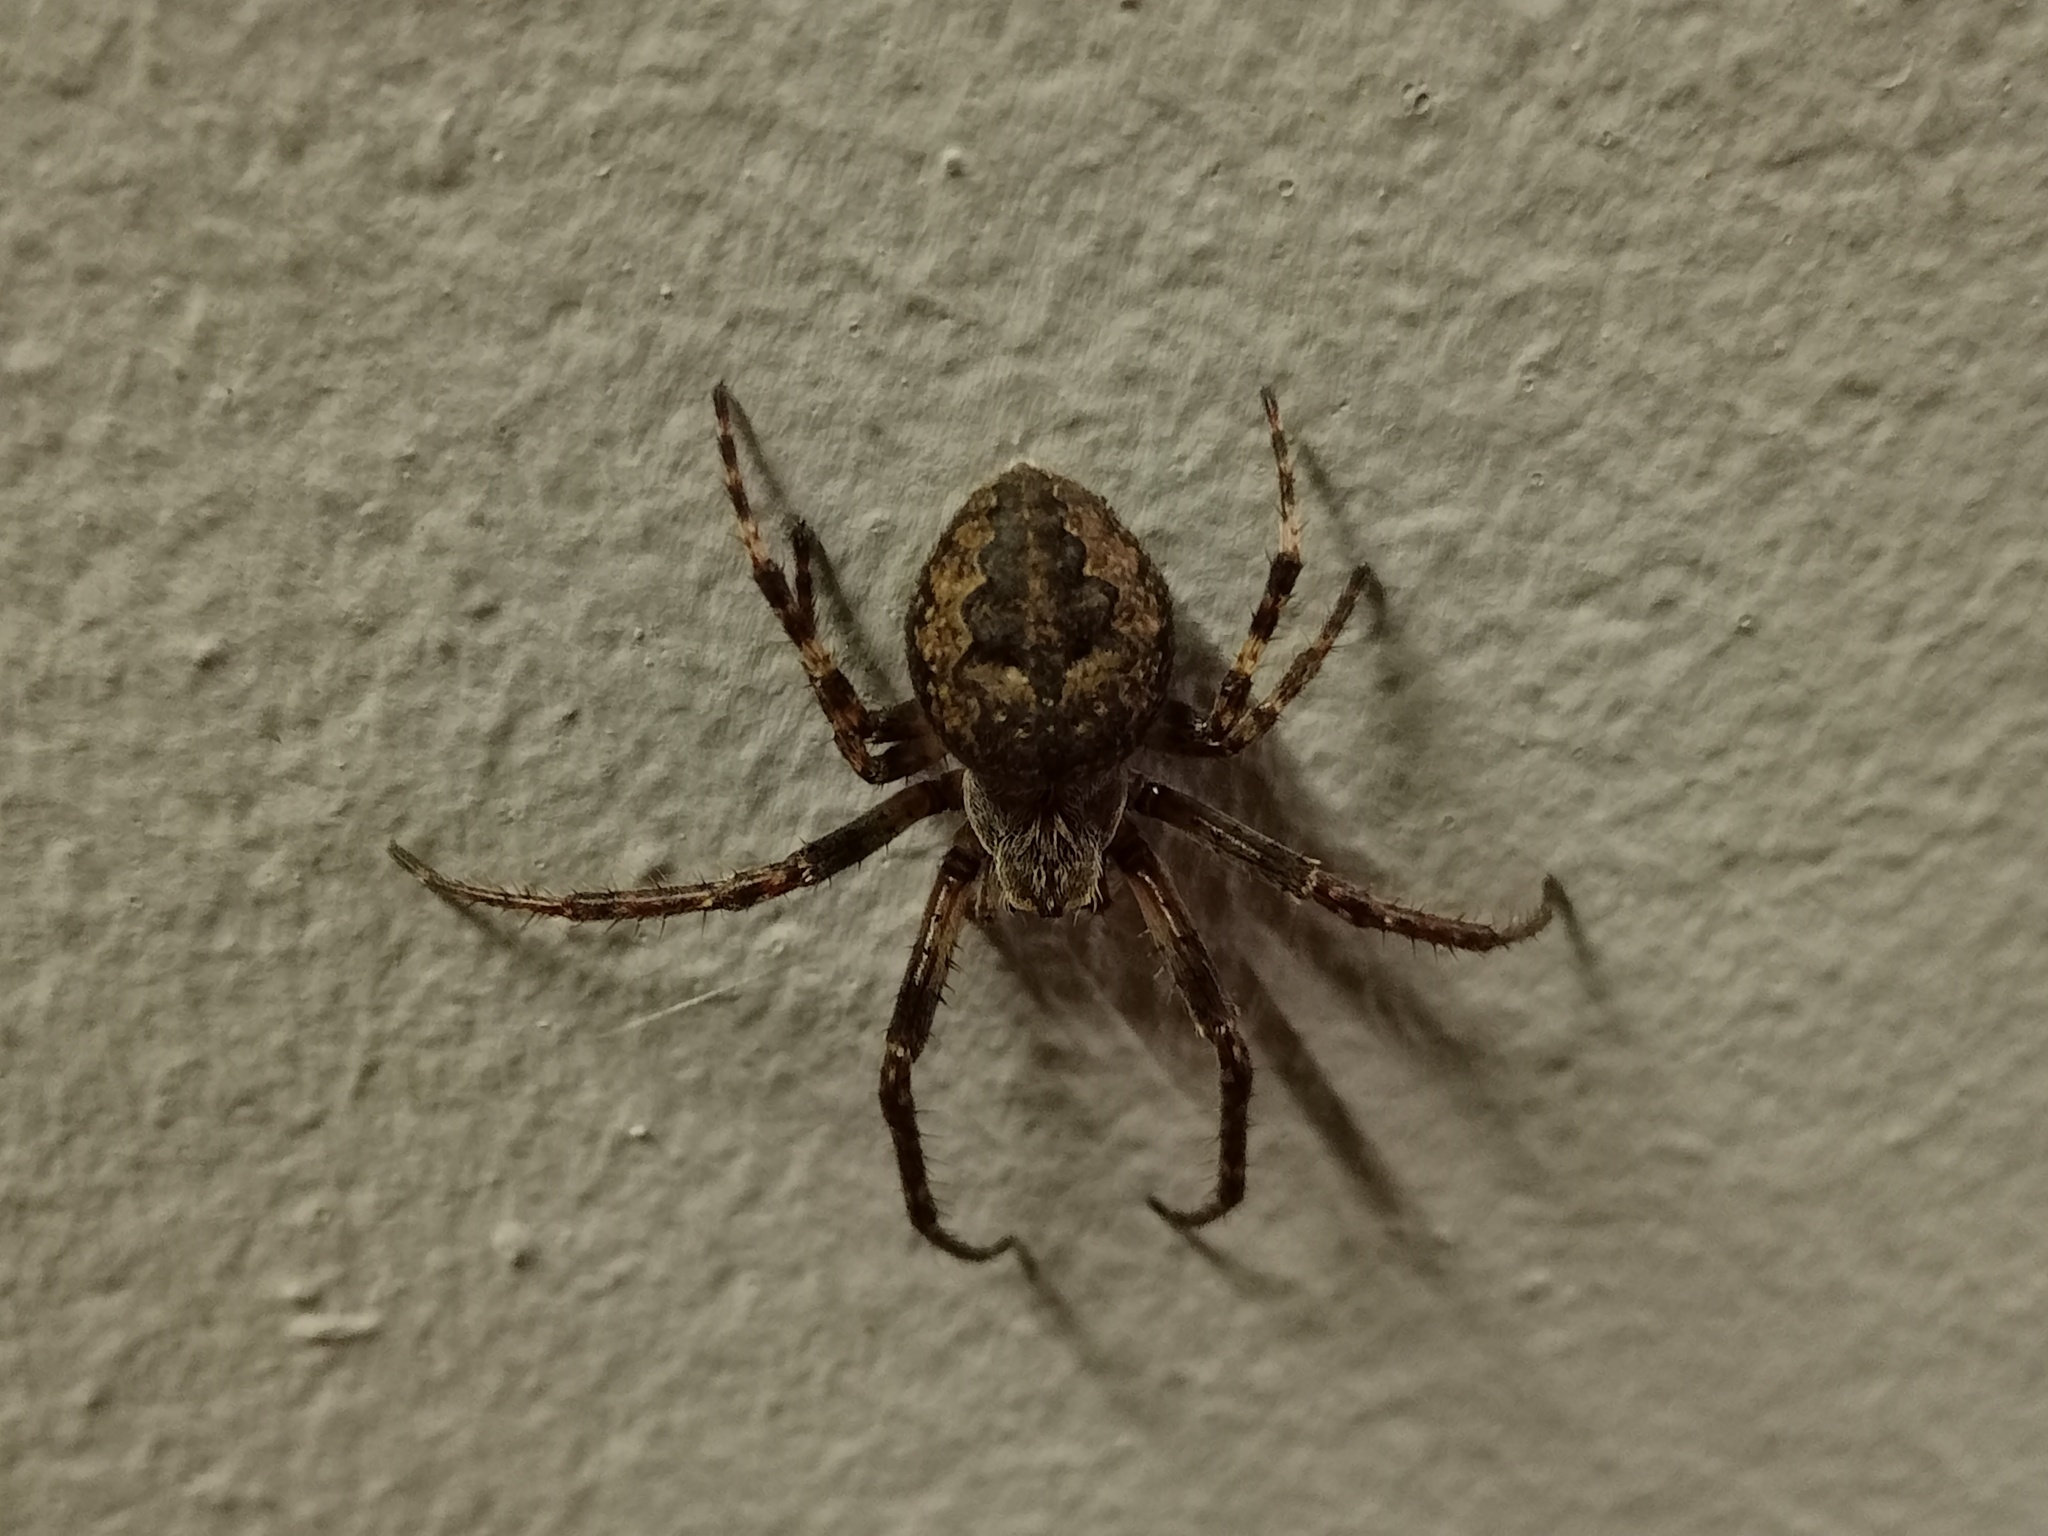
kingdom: Animalia
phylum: Arthropoda
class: Arachnida
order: Araneae
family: Araneidae
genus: Larinioides
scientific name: Larinioides ixobolus
